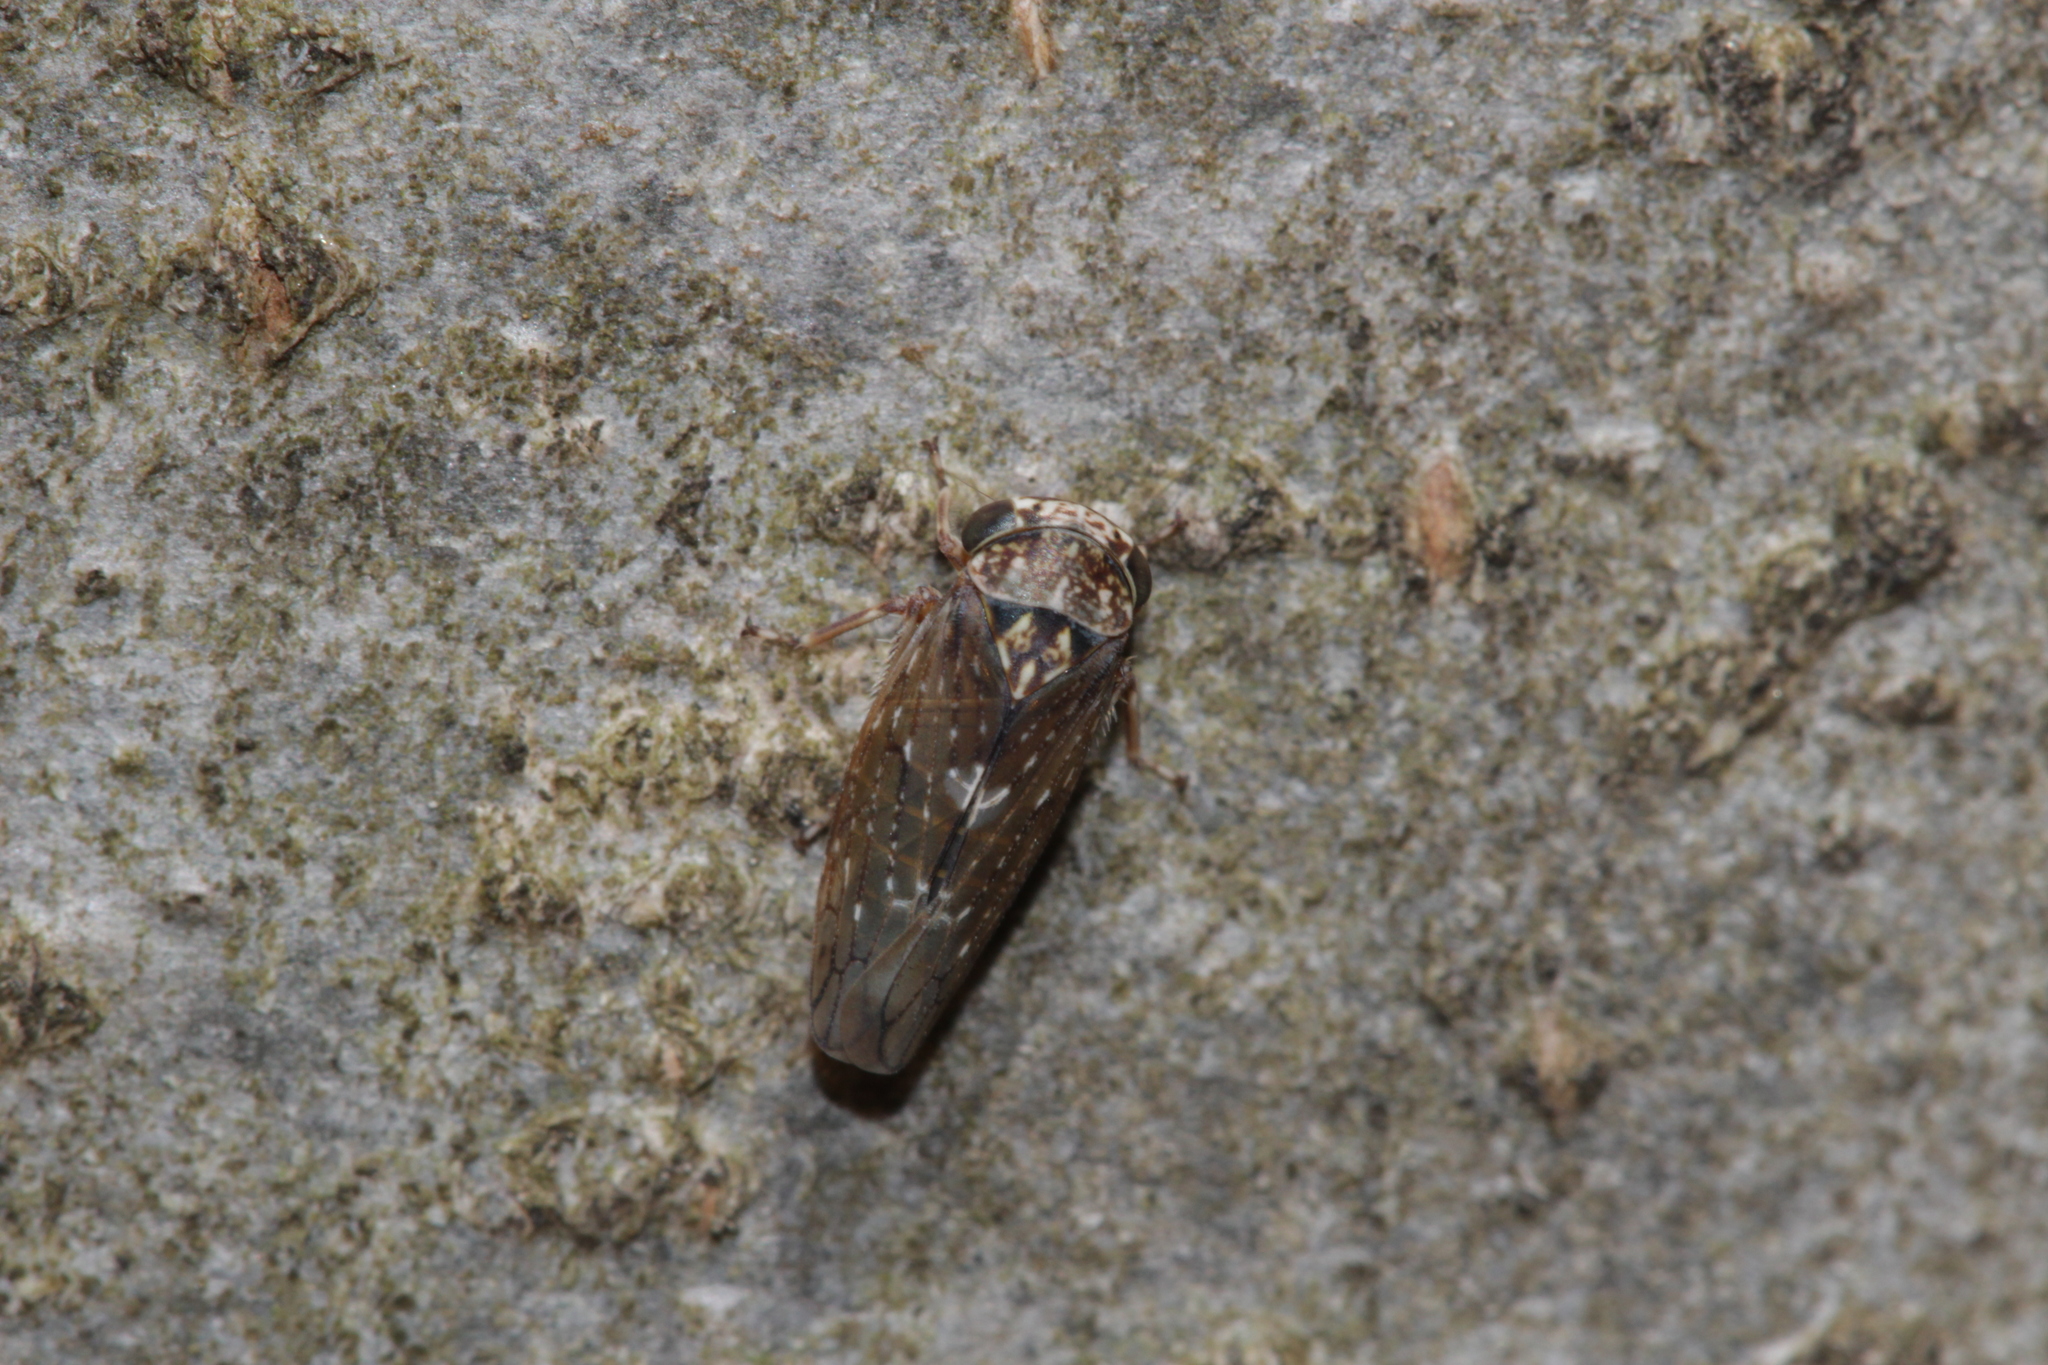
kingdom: Animalia
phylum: Arthropoda
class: Insecta
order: Hemiptera
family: Cicadellidae
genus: Acericerus
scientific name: Acericerus heydenii
